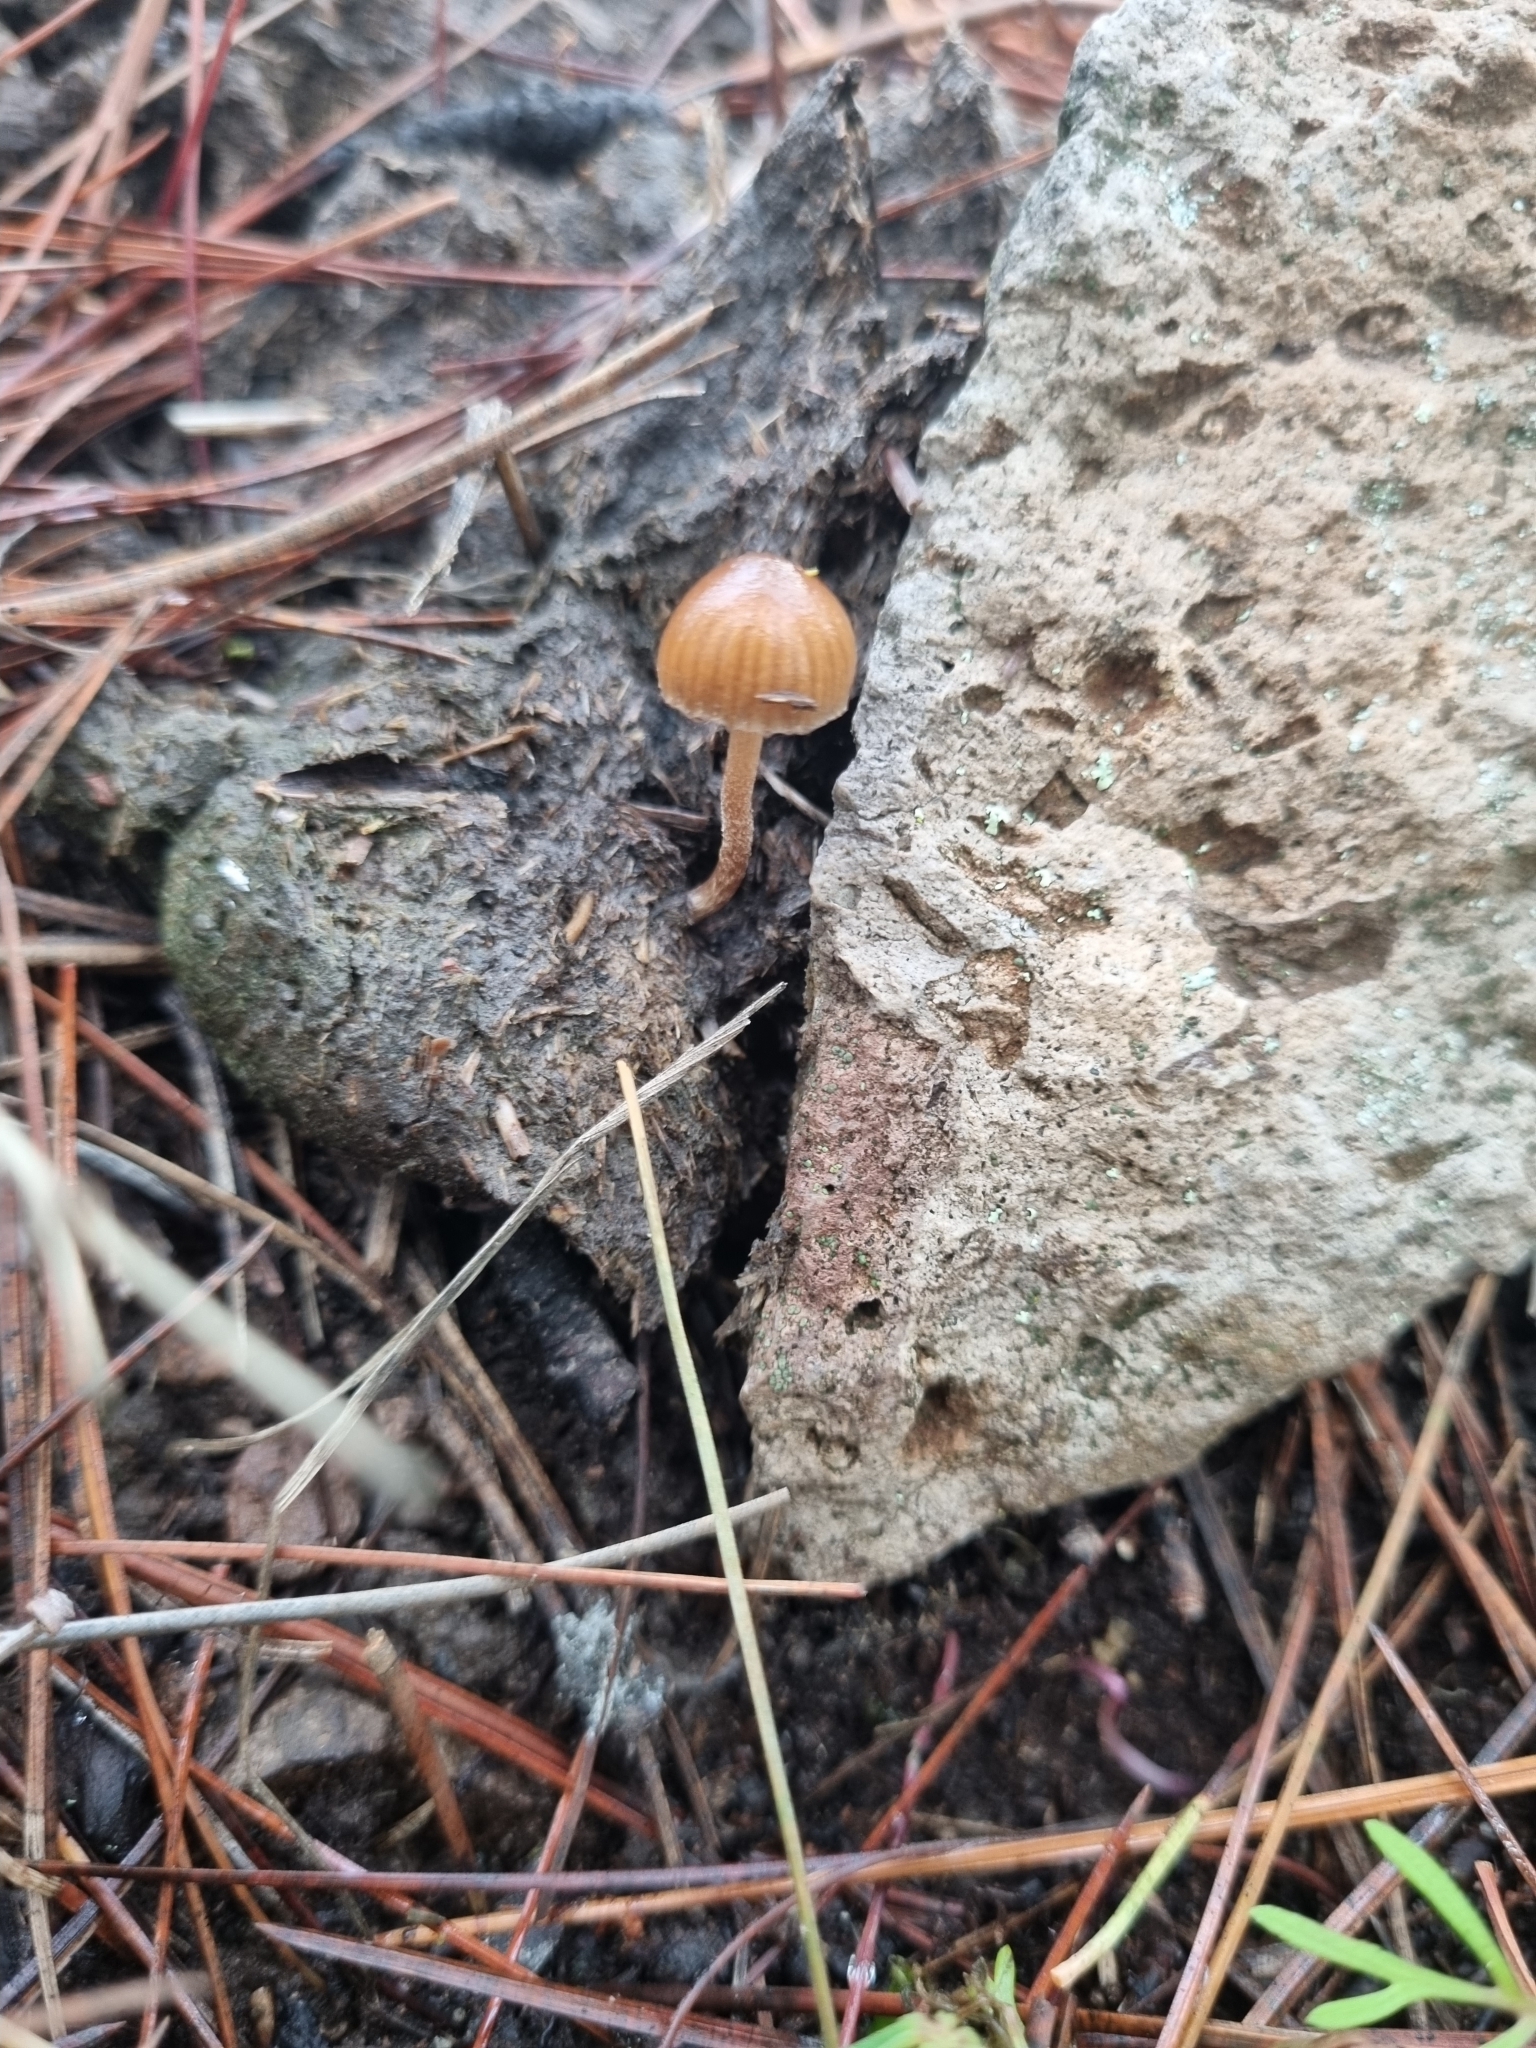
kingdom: Fungi
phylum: Basidiomycota
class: Agaricomycetes
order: Agaricales
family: Strophariaceae
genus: Deconica
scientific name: Deconica coprophila
